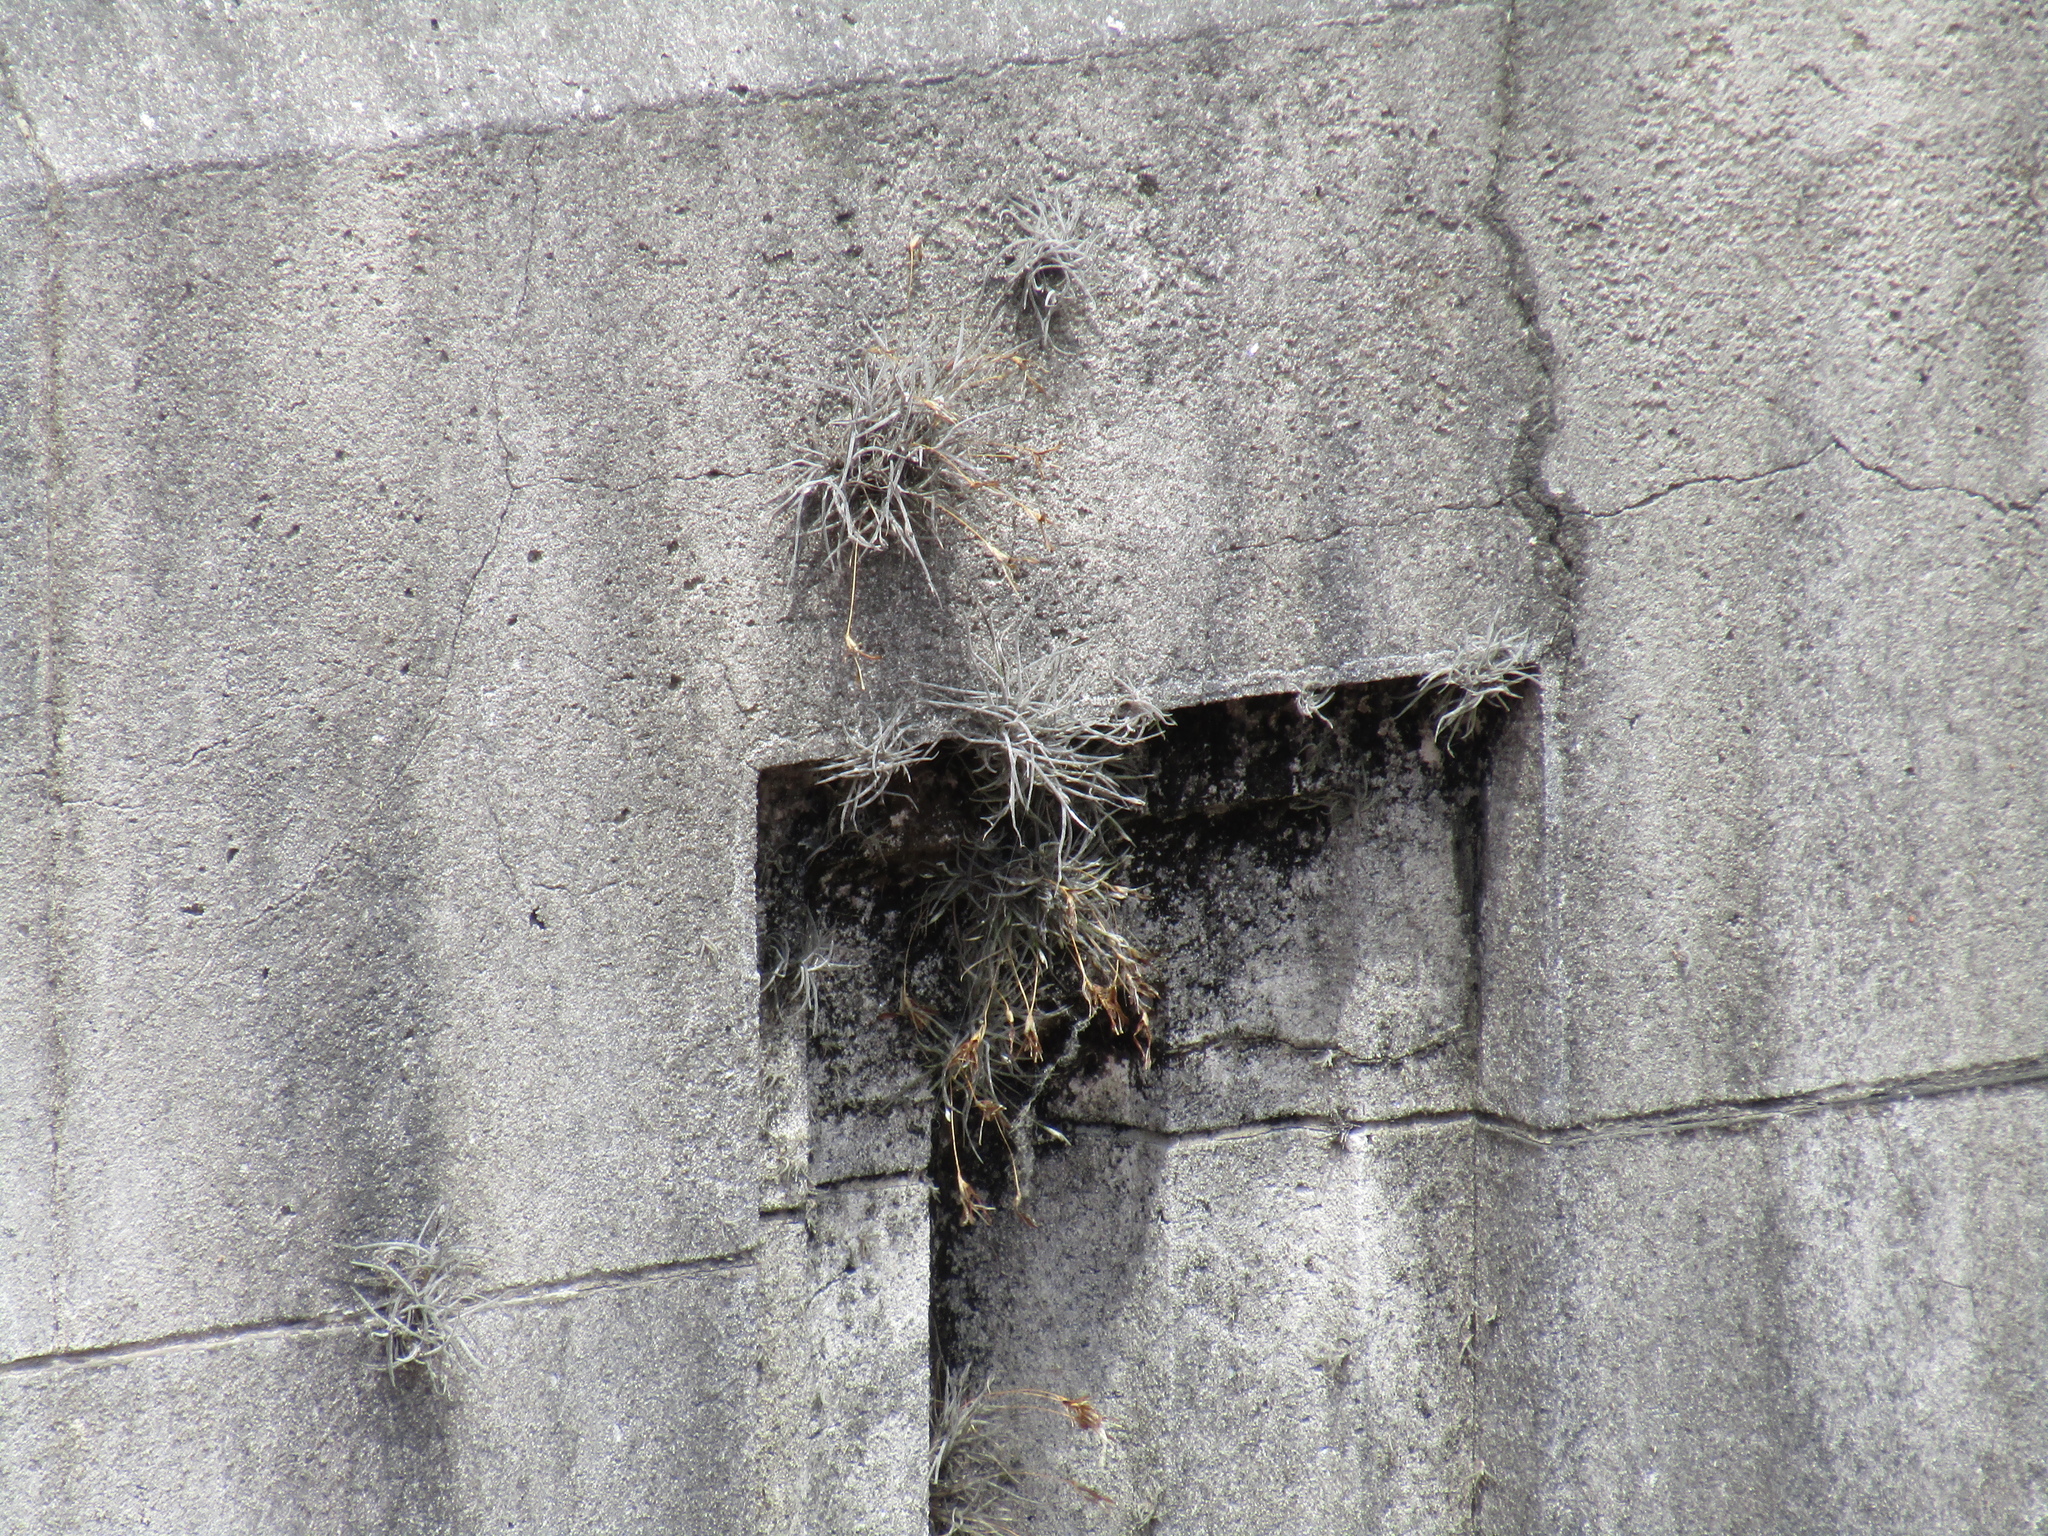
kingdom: Plantae
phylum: Tracheophyta
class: Liliopsida
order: Poales
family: Bromeliaceae
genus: Tillandsia
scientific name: Tillandsia recurvata
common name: Small ballmoss
